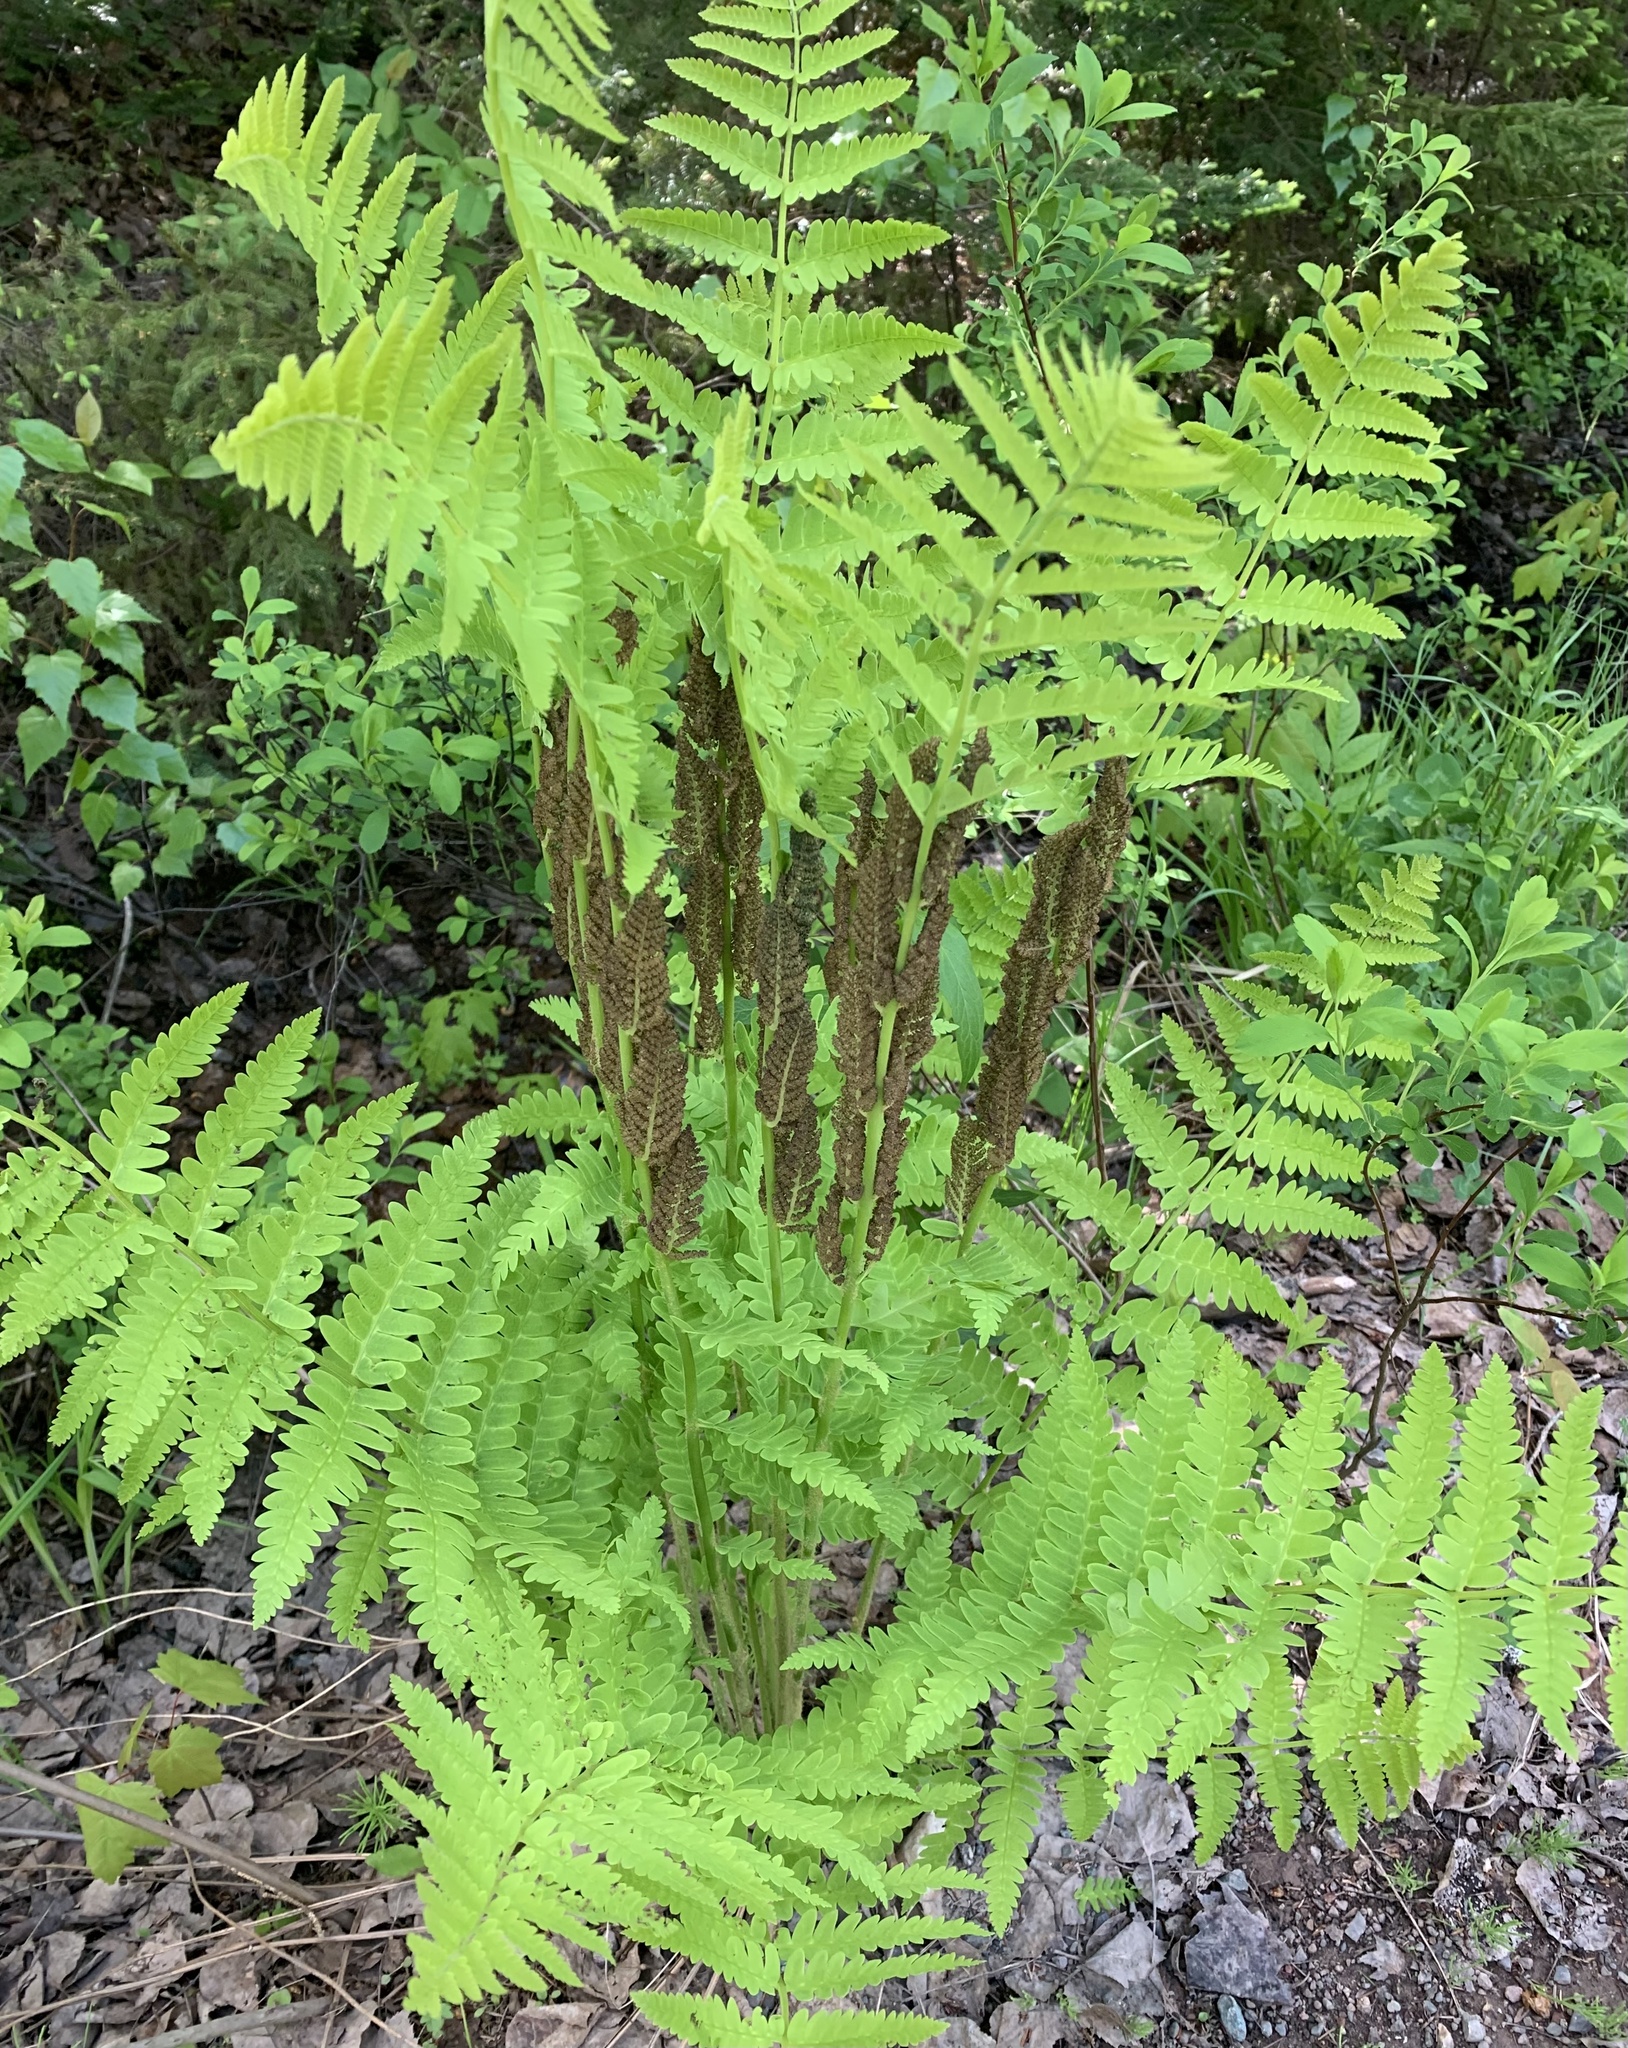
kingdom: Plantae
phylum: Tracheophyta
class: Polypodiopsida
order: Osmundales
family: Osmundaceae
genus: Claytosmunda
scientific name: Claytosmunda claytoniana
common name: Clayton's fern
